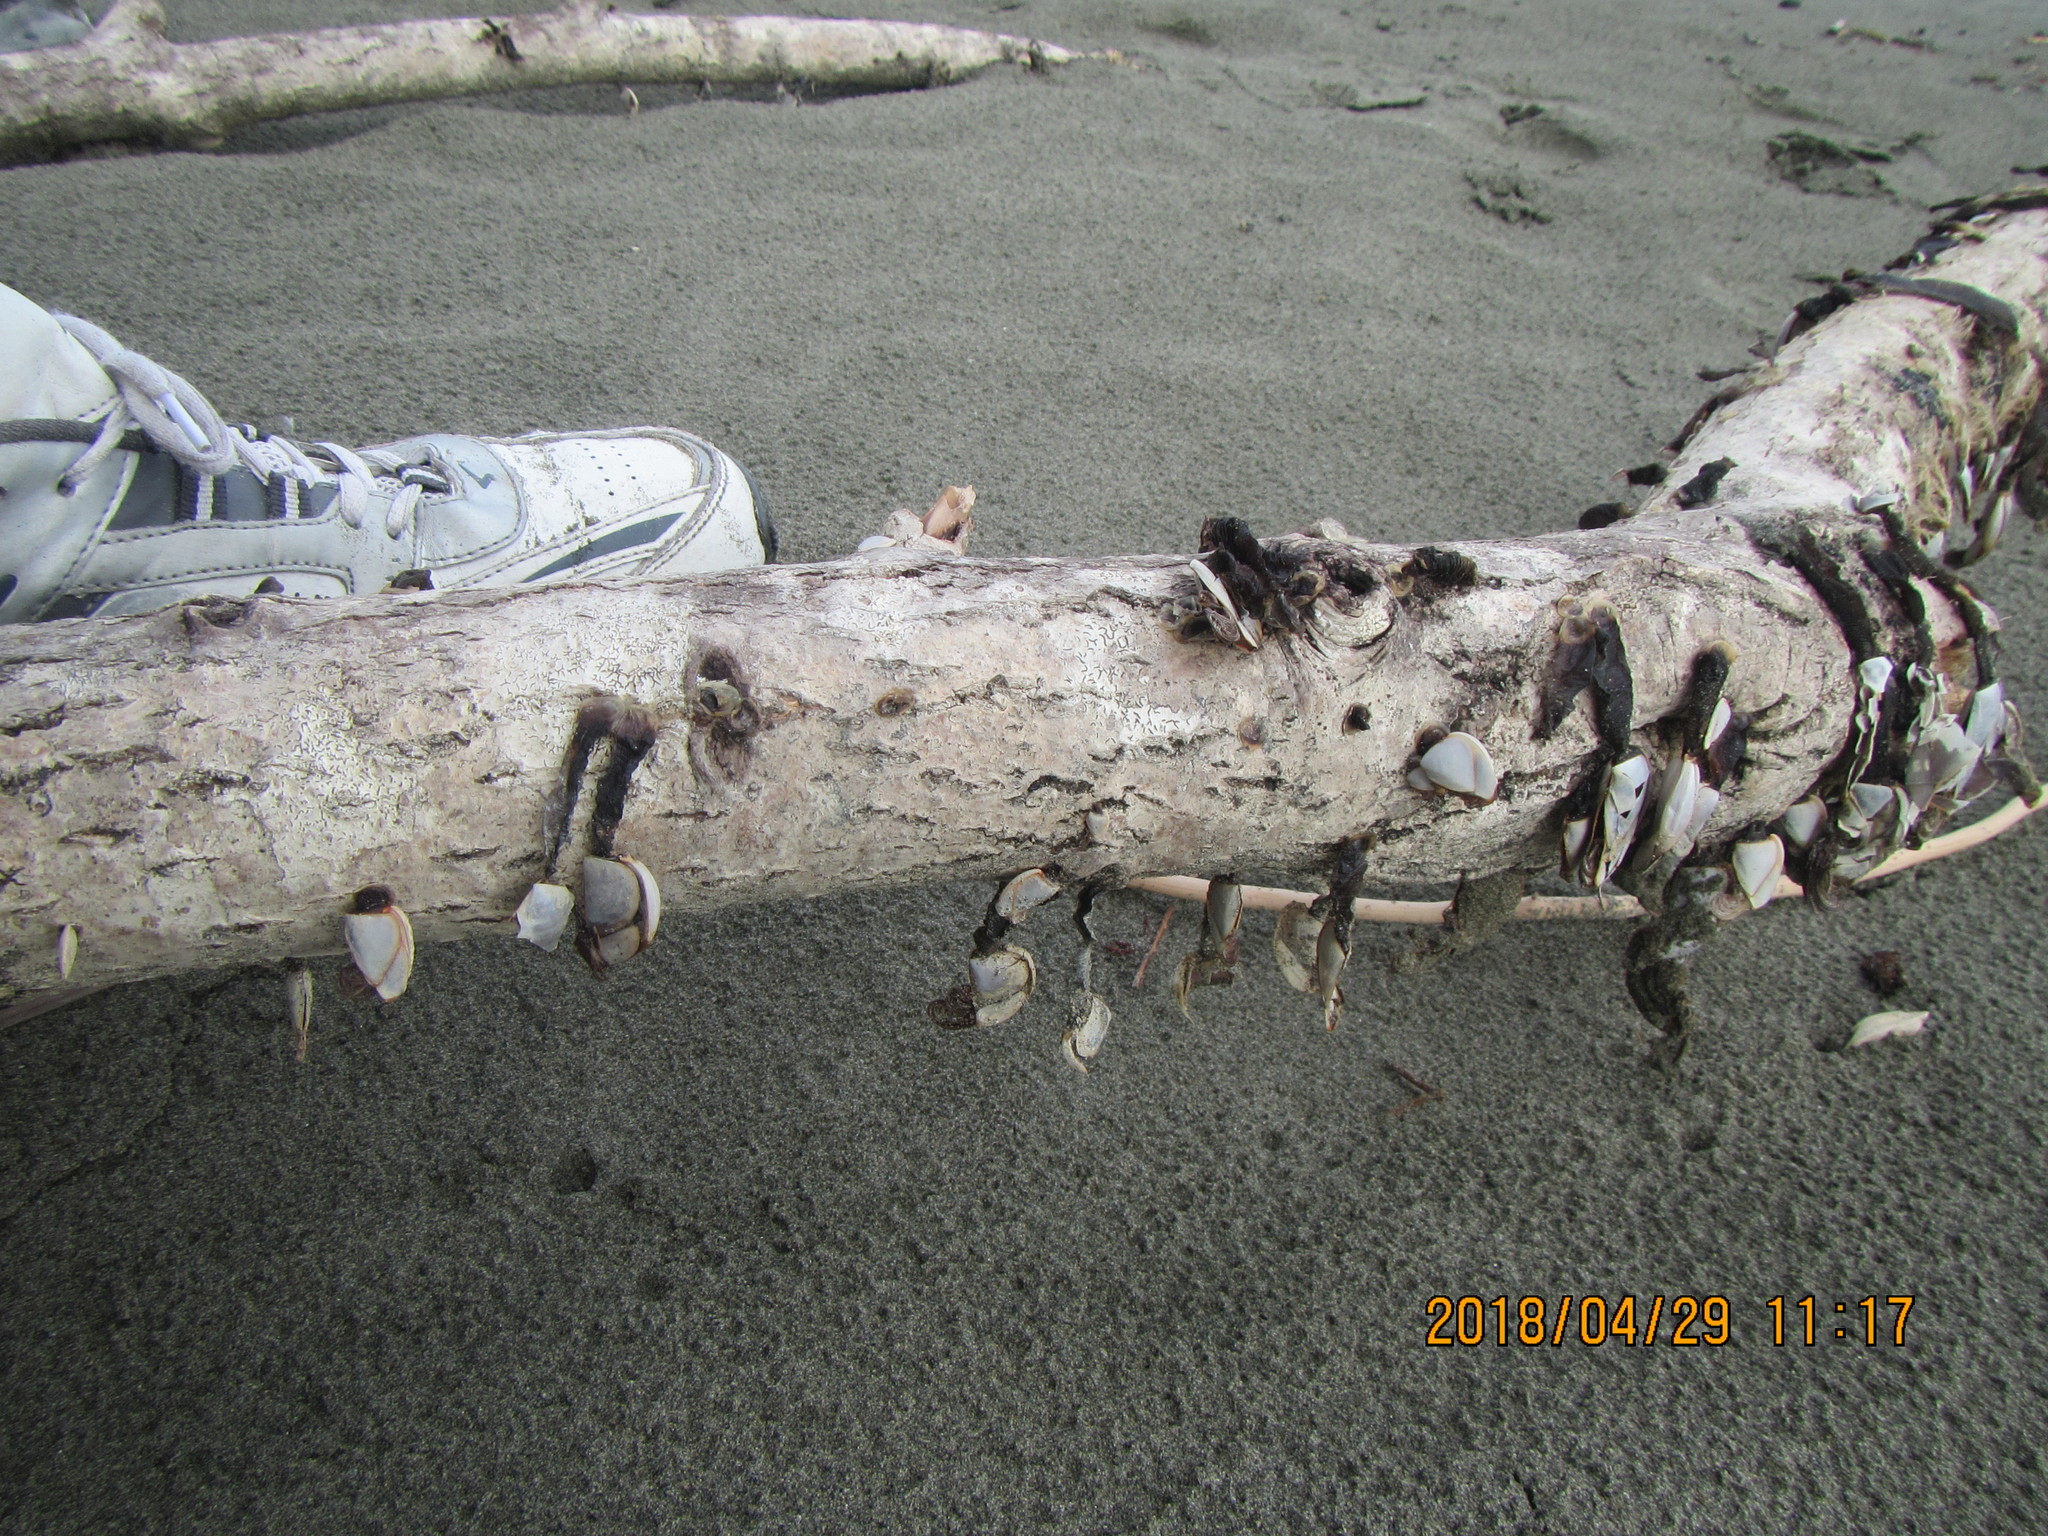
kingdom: Animalia
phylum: Arthropoda
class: Maxillopoda
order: Pedunculata
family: Lepadidae
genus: Lepas
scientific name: Lepas anatifera
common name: Common goose barnacle
